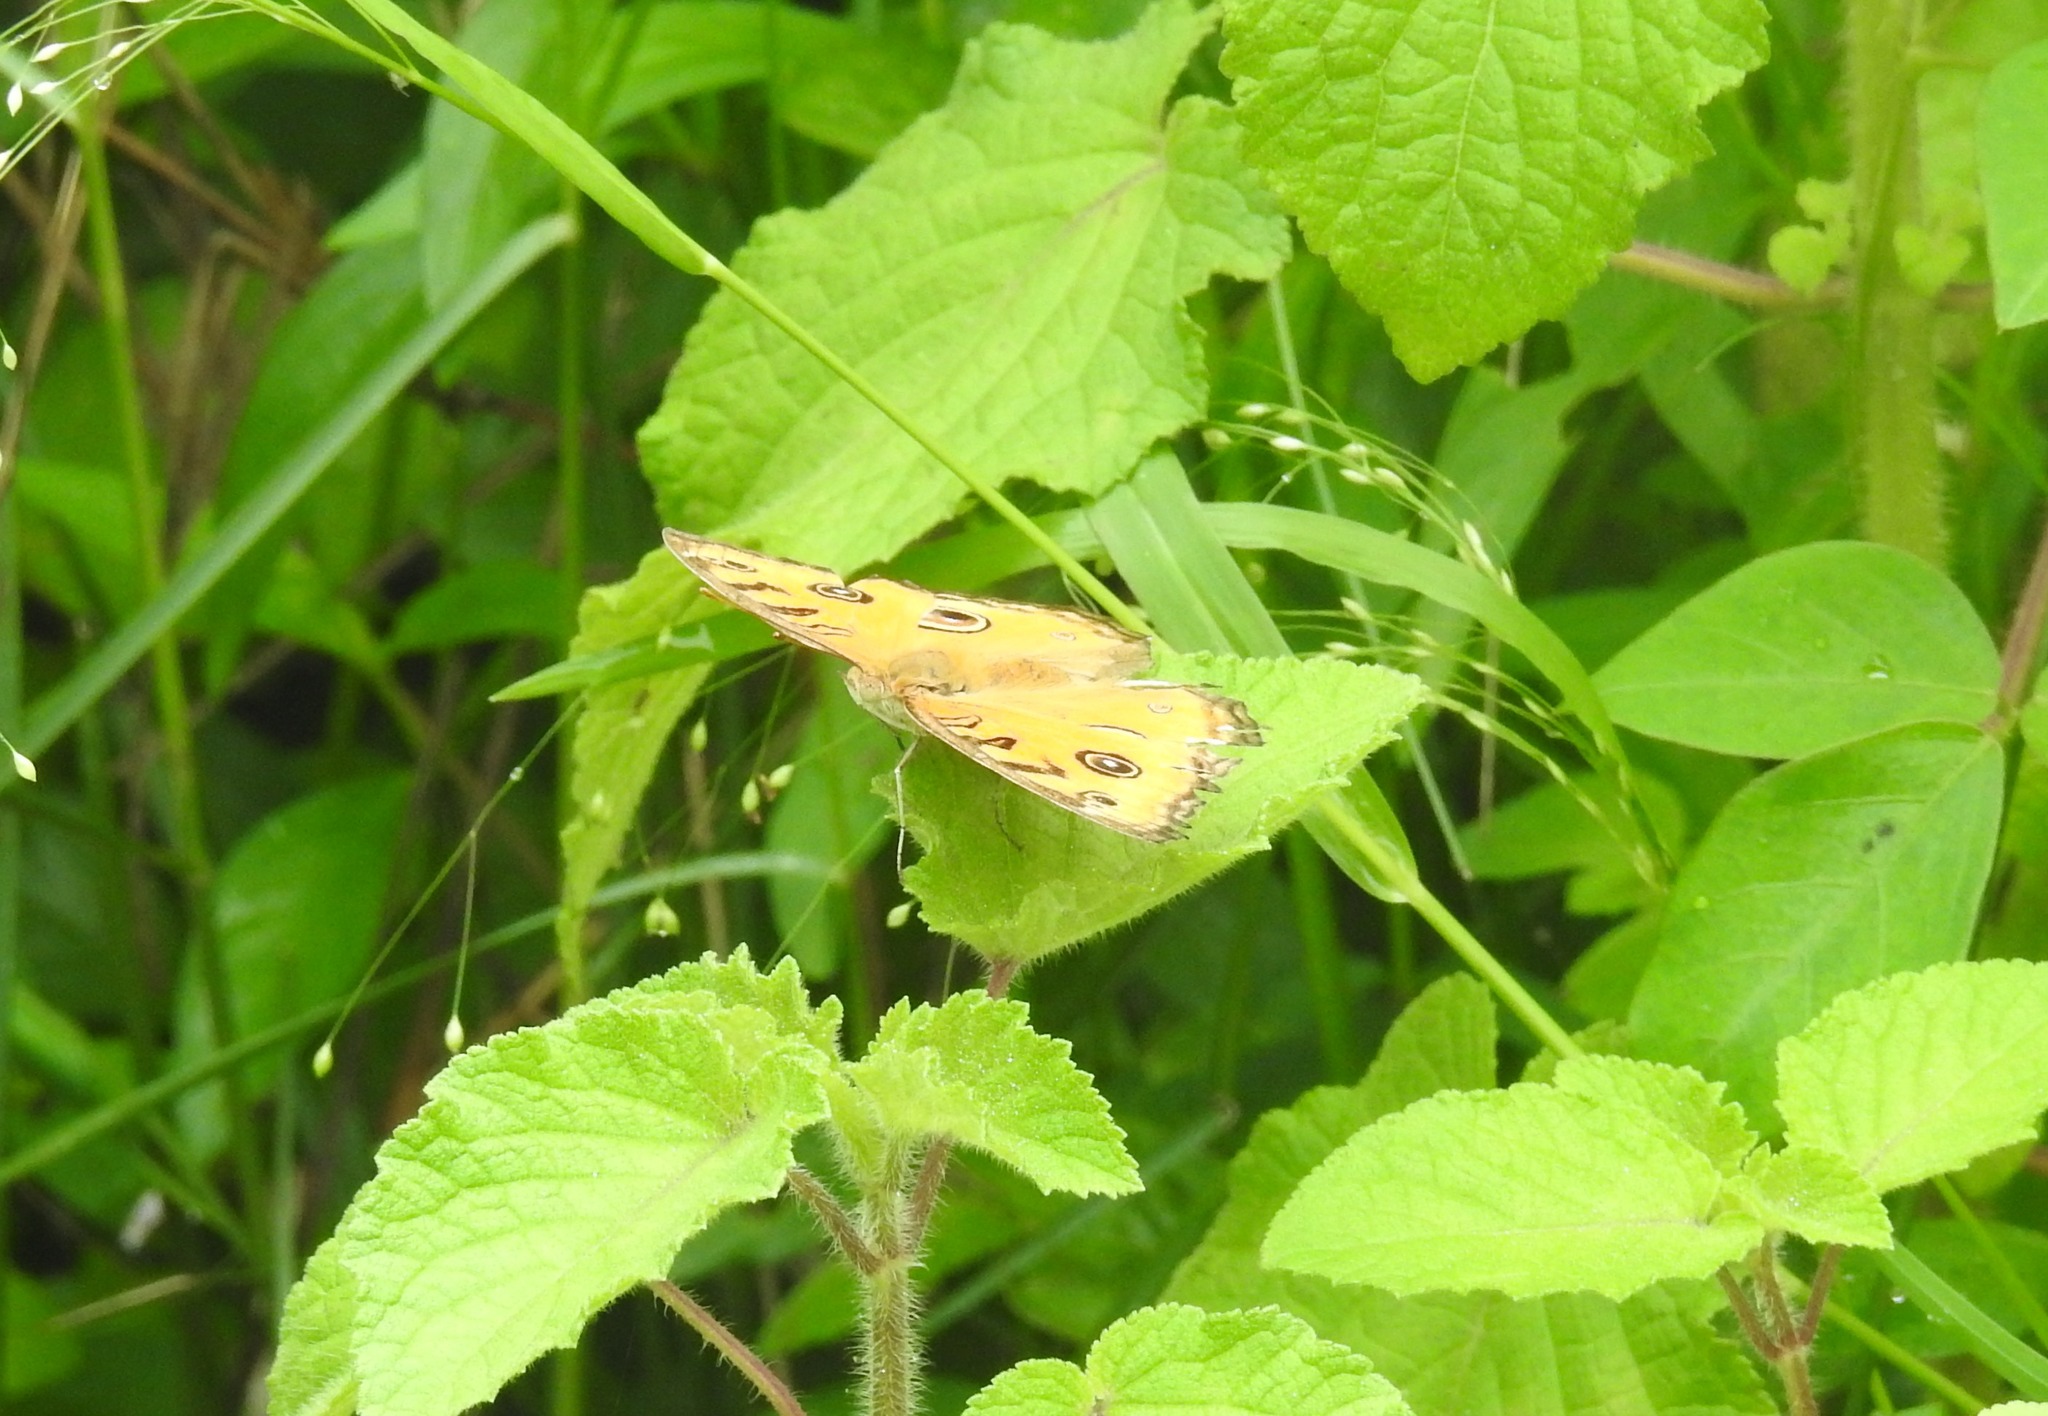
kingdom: Animalia
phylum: Arthropoda
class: Insecta
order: Lepidoptera
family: Nymphalidae
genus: Junonia
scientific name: Junonia almana
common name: Peacock pansy
